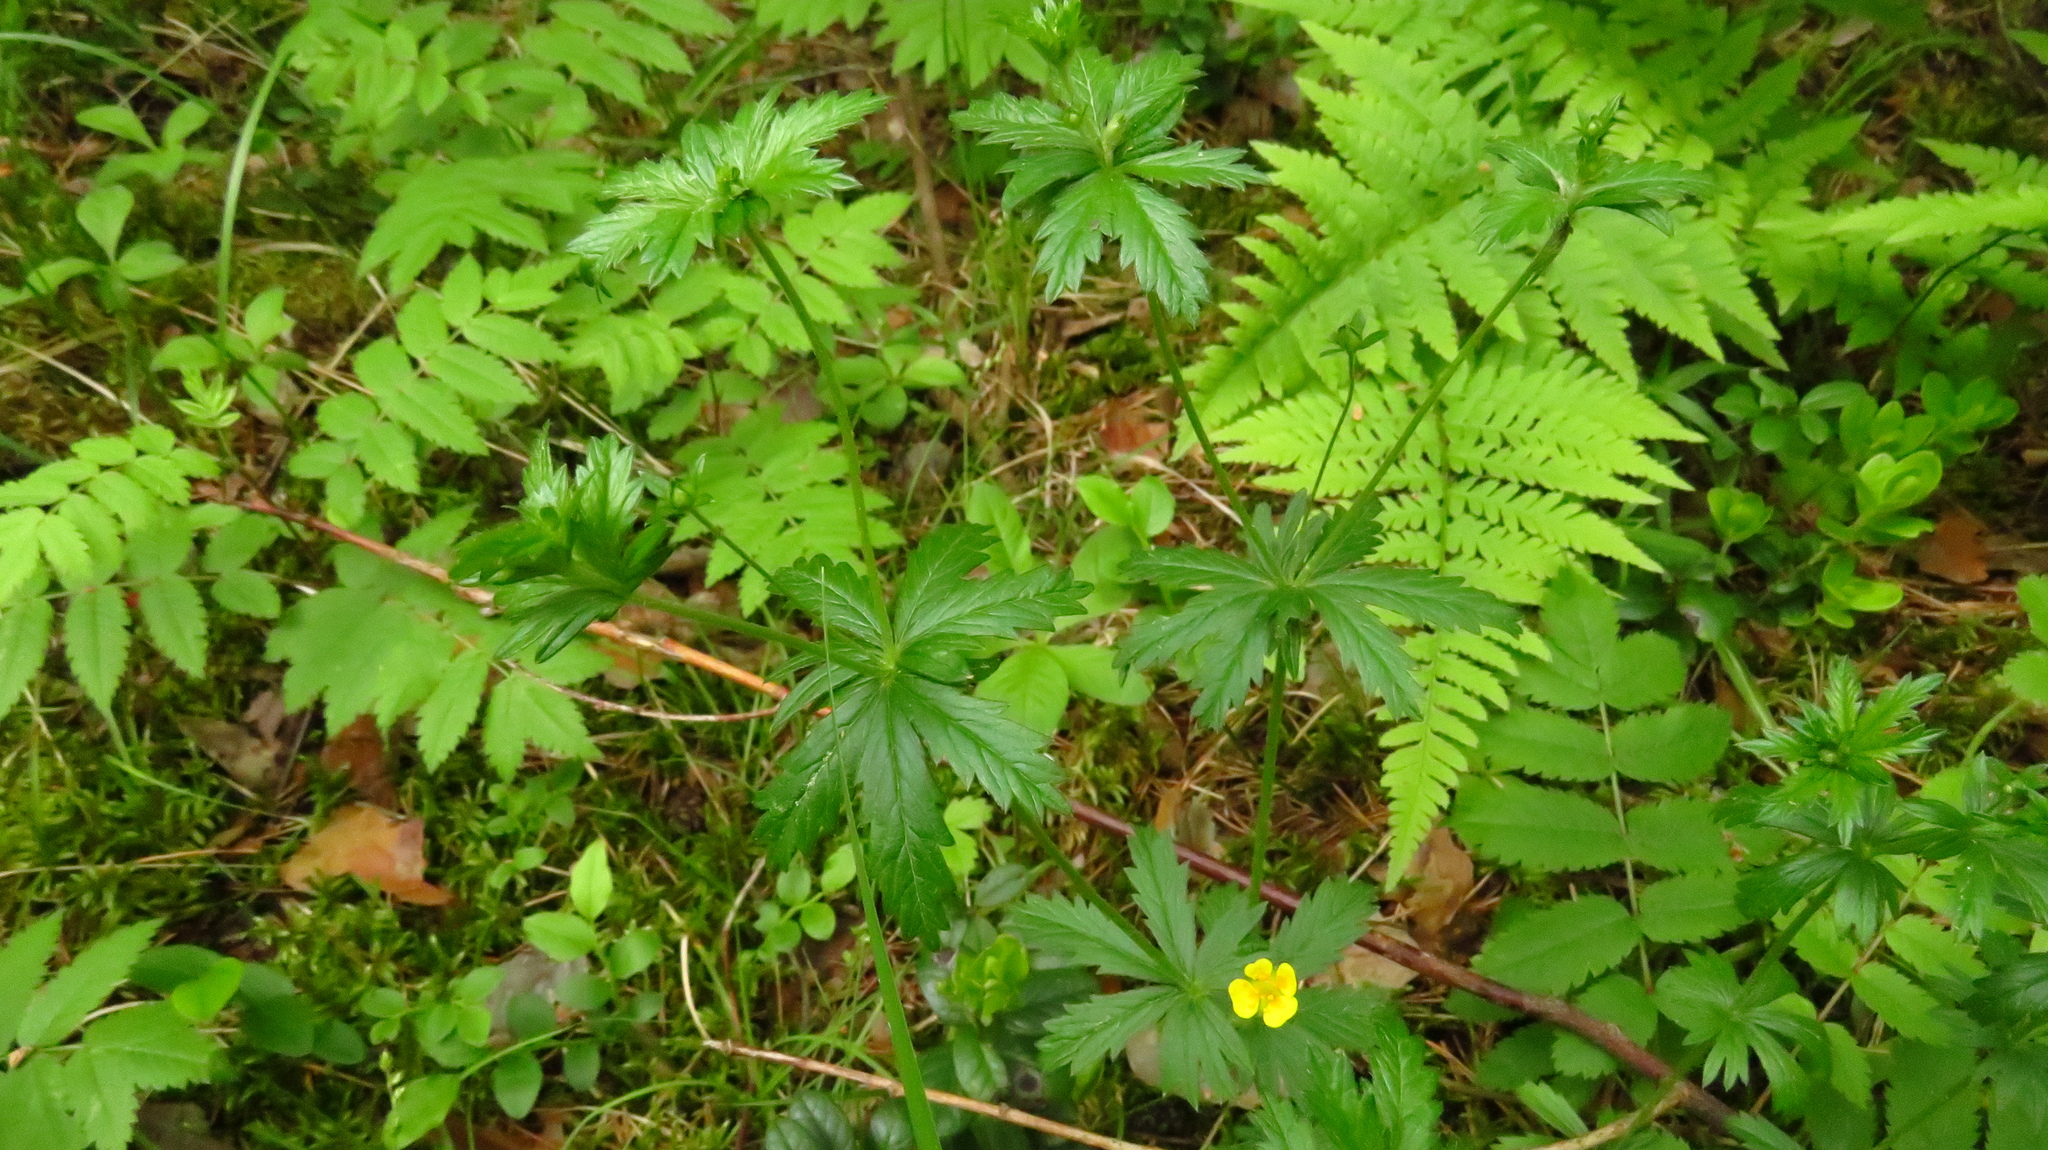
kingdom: Plantae
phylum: Tracheophyta
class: Magnoliopsida
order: Rosales
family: Rosaceae
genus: Potentilla
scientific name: Potentilla erecta
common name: Tormentil
